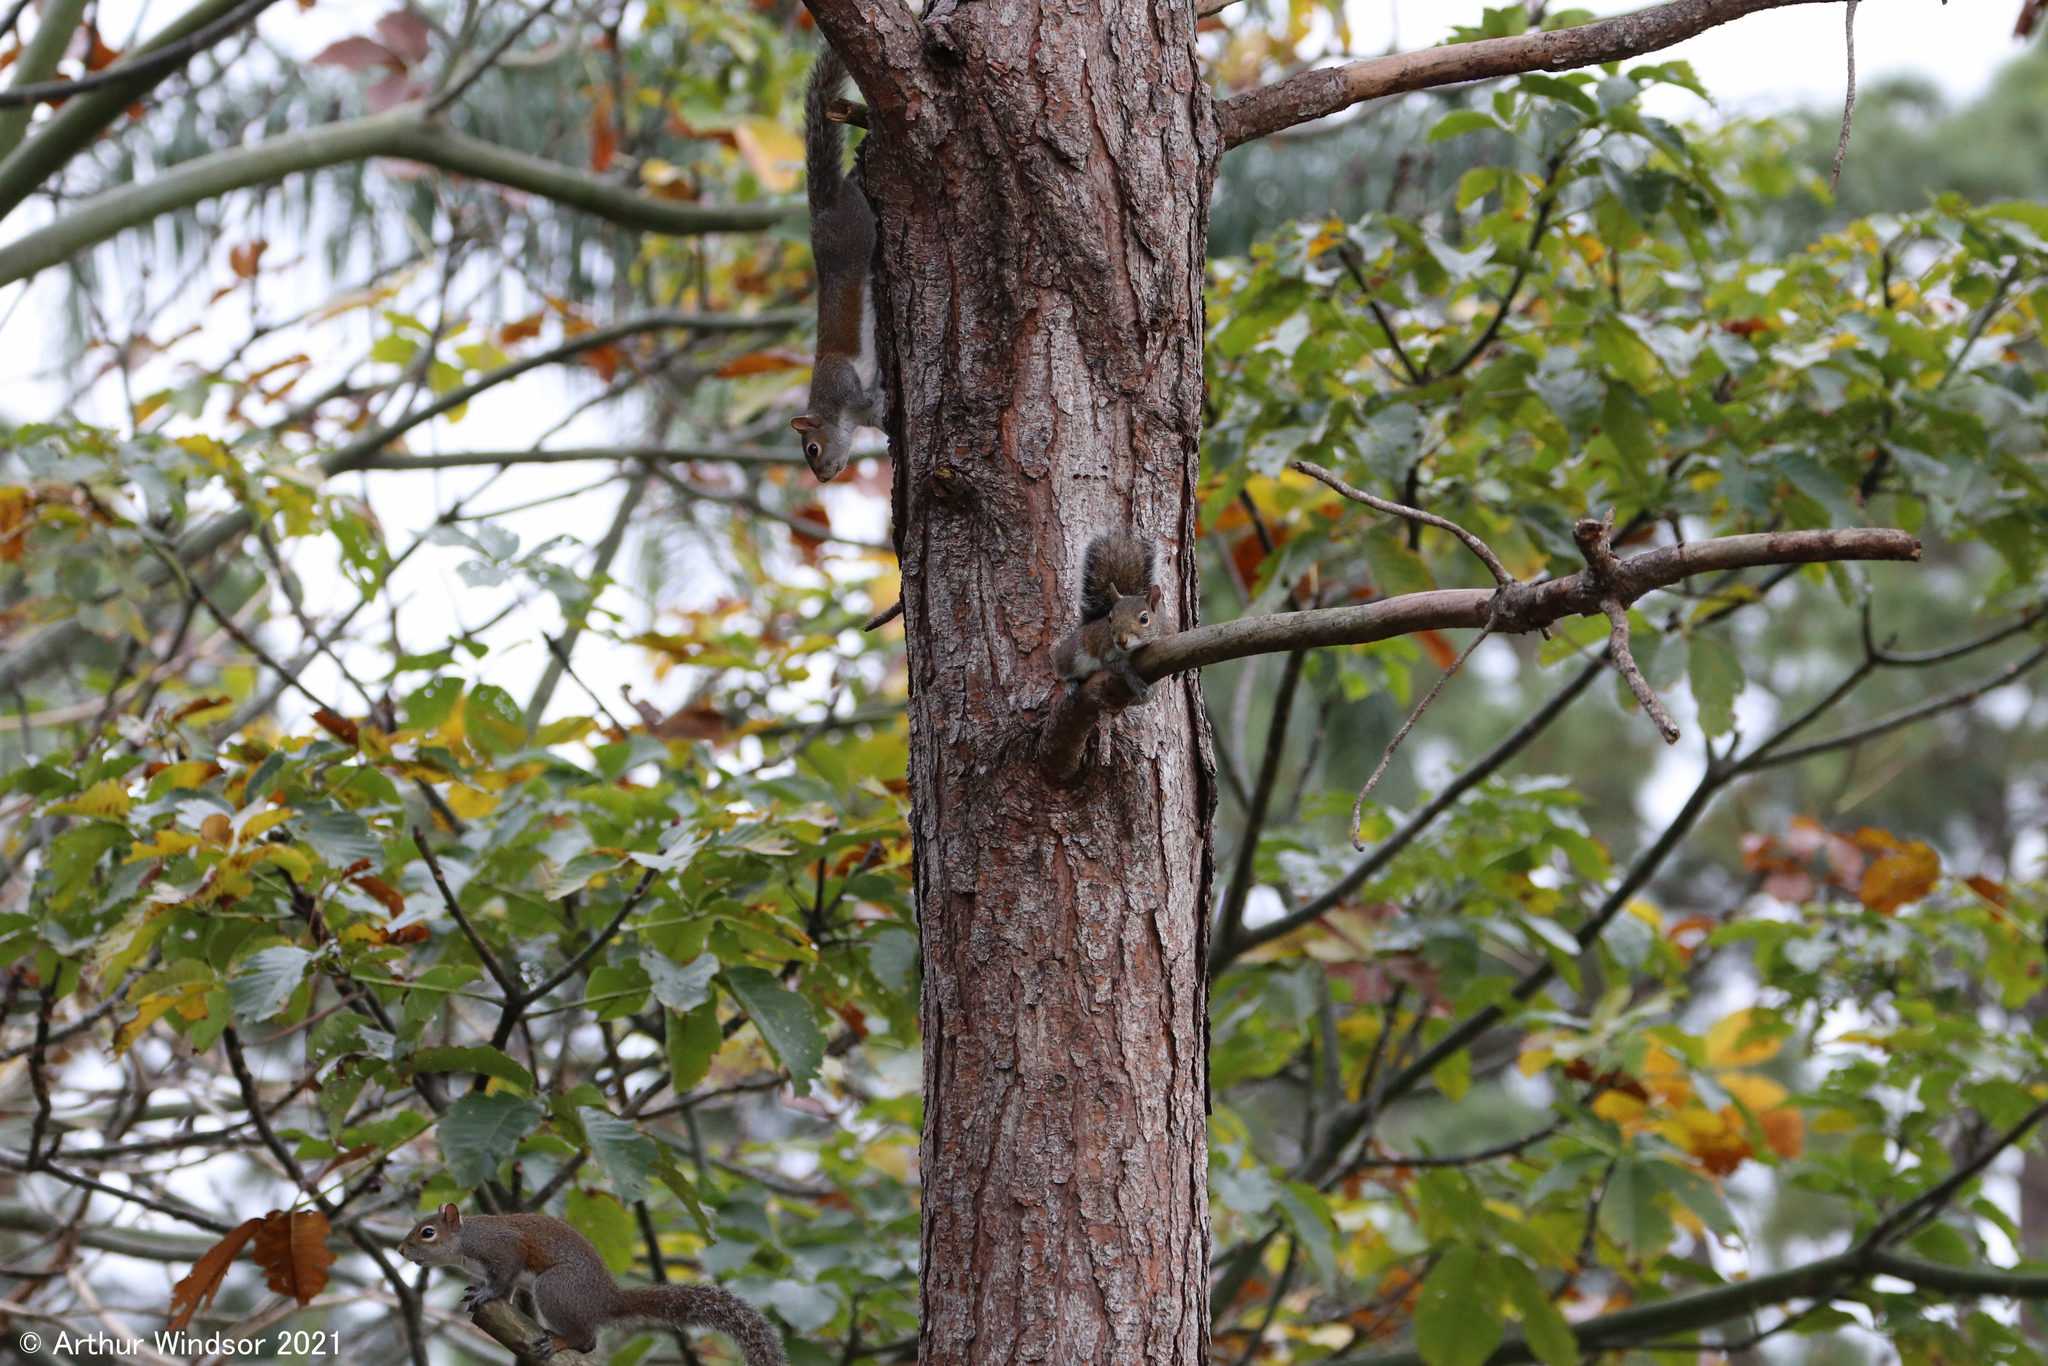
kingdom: Animalia
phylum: Chordata
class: Mammalia
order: Rodentia
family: Sciuridae
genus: Sciurus
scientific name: Sciurus carolinensis
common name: Eastern gray squirrel
